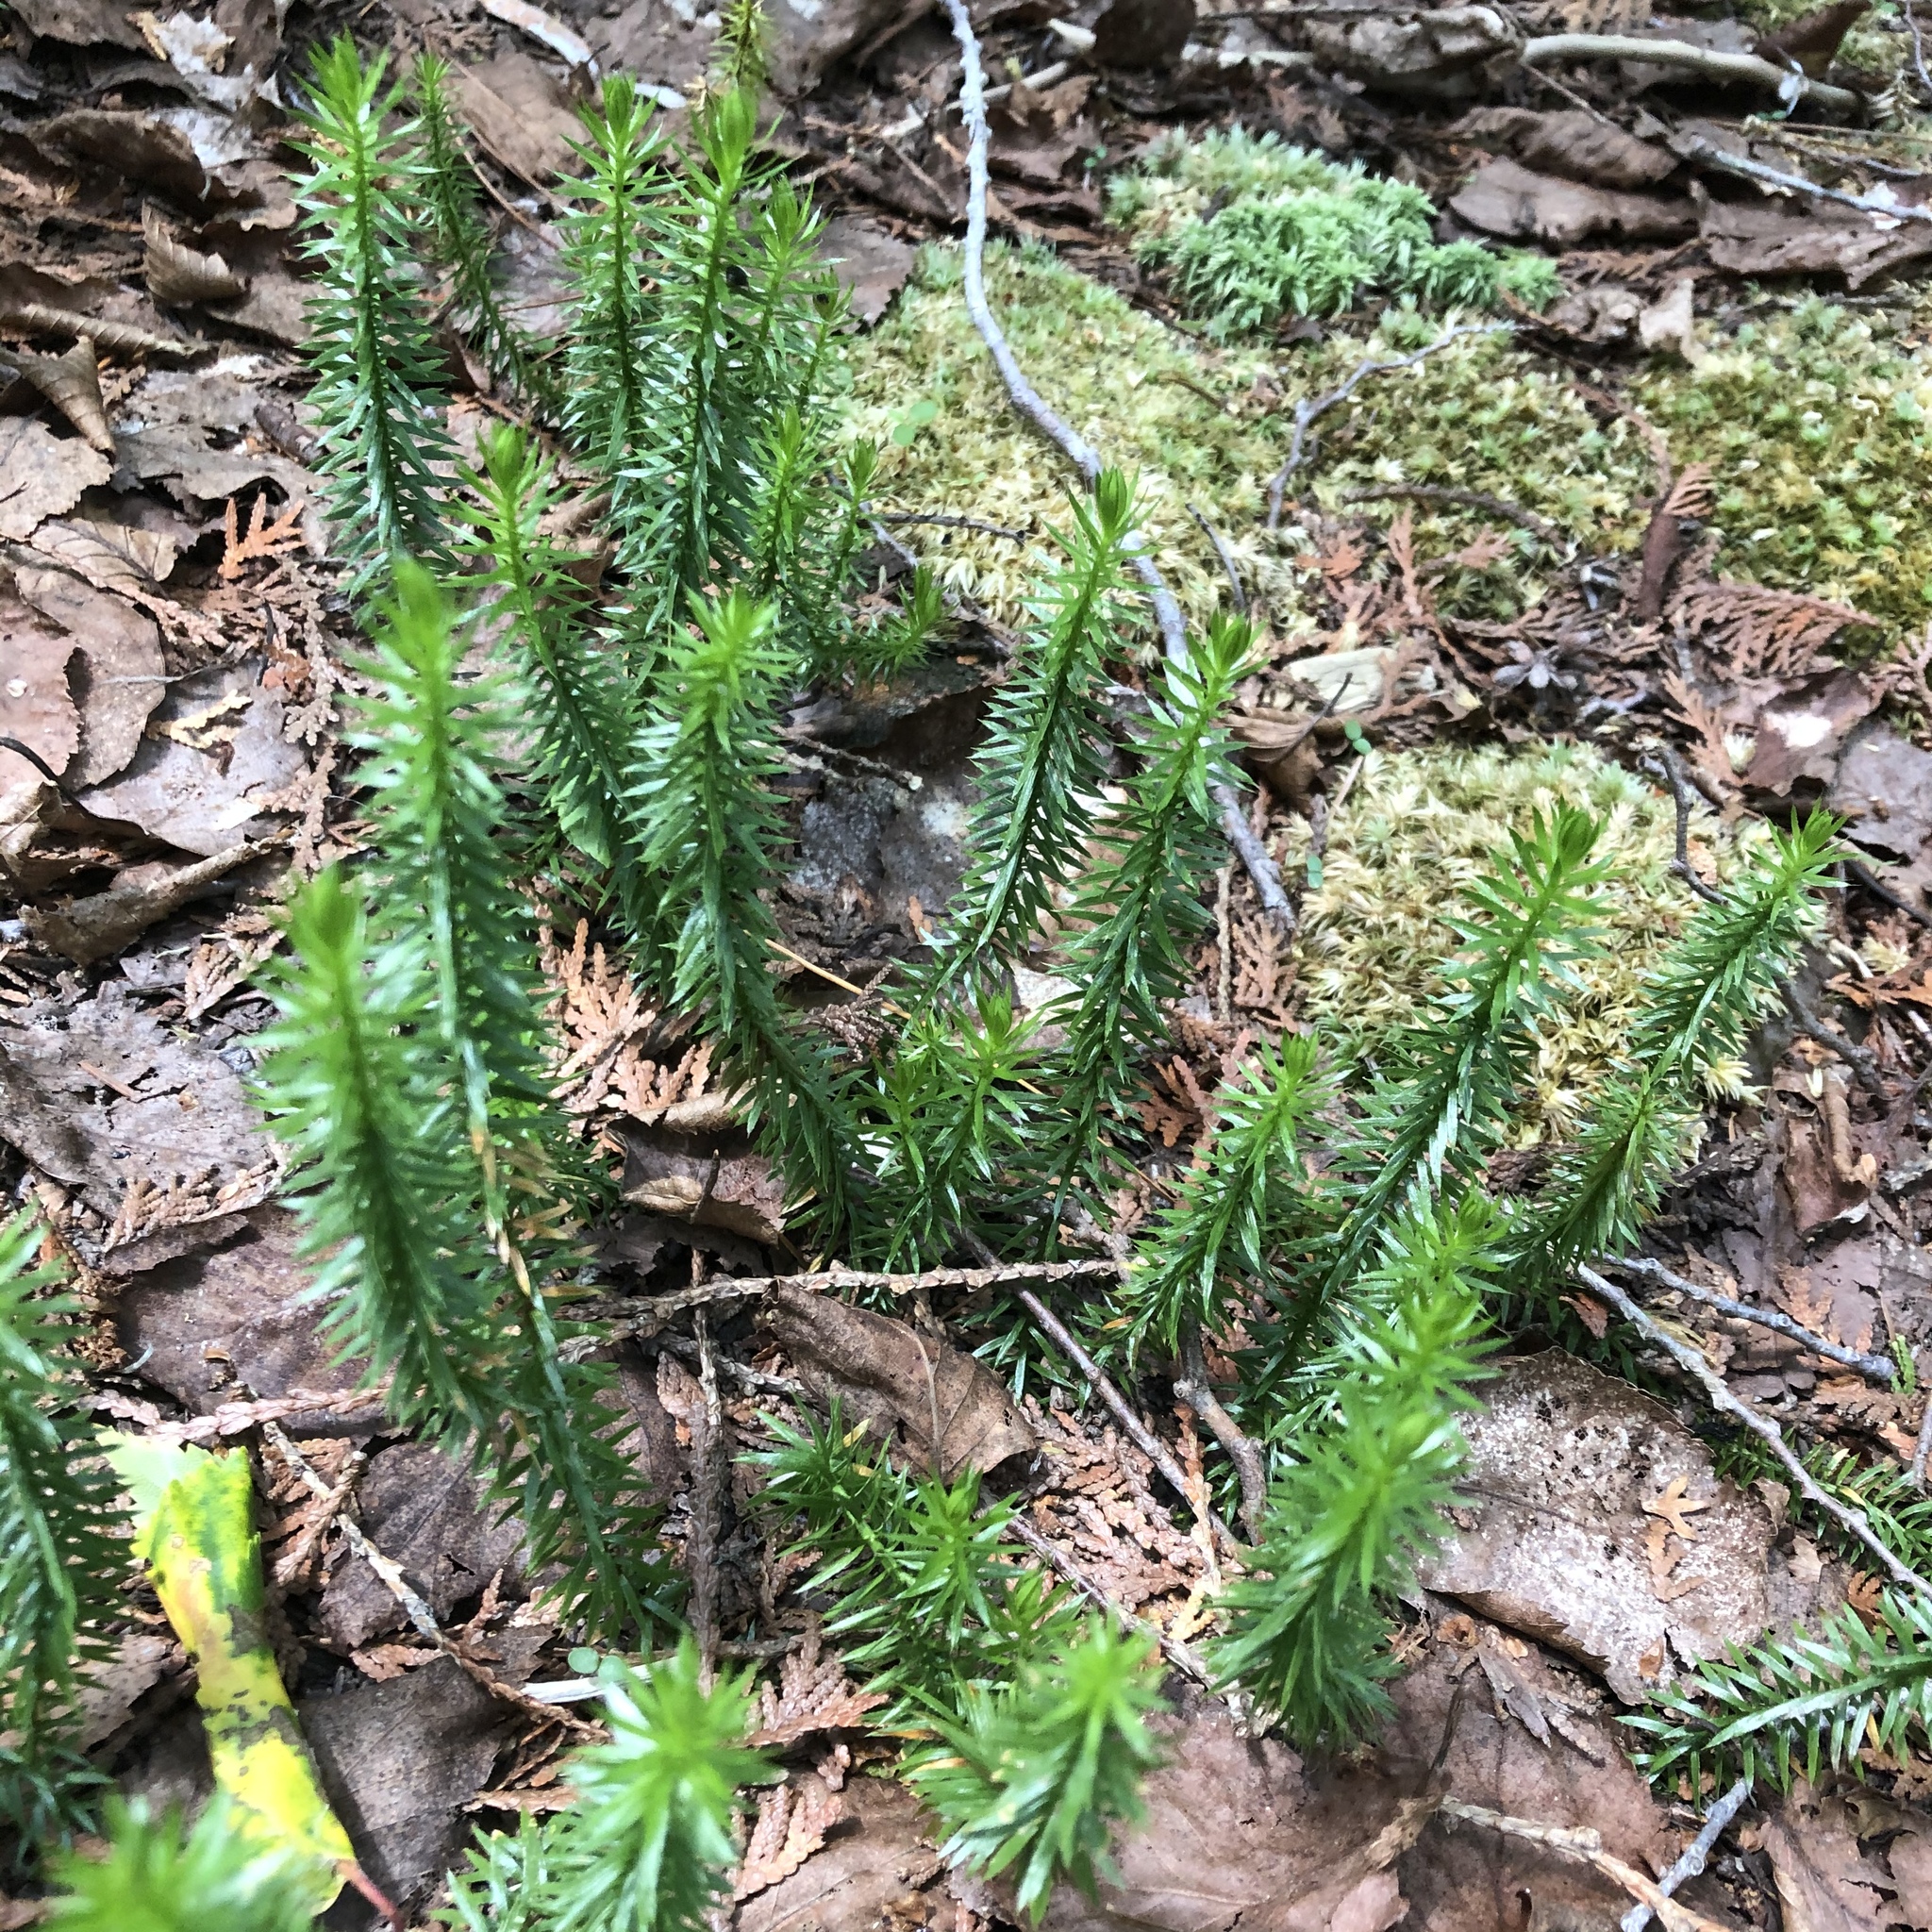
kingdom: Plantae
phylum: Tracheophyta
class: Lycopodiopsida
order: Lycopodiales
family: Lycopodiaceae
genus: Spinulum
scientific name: Spinulum annotinum
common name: Interrupted club-moss
